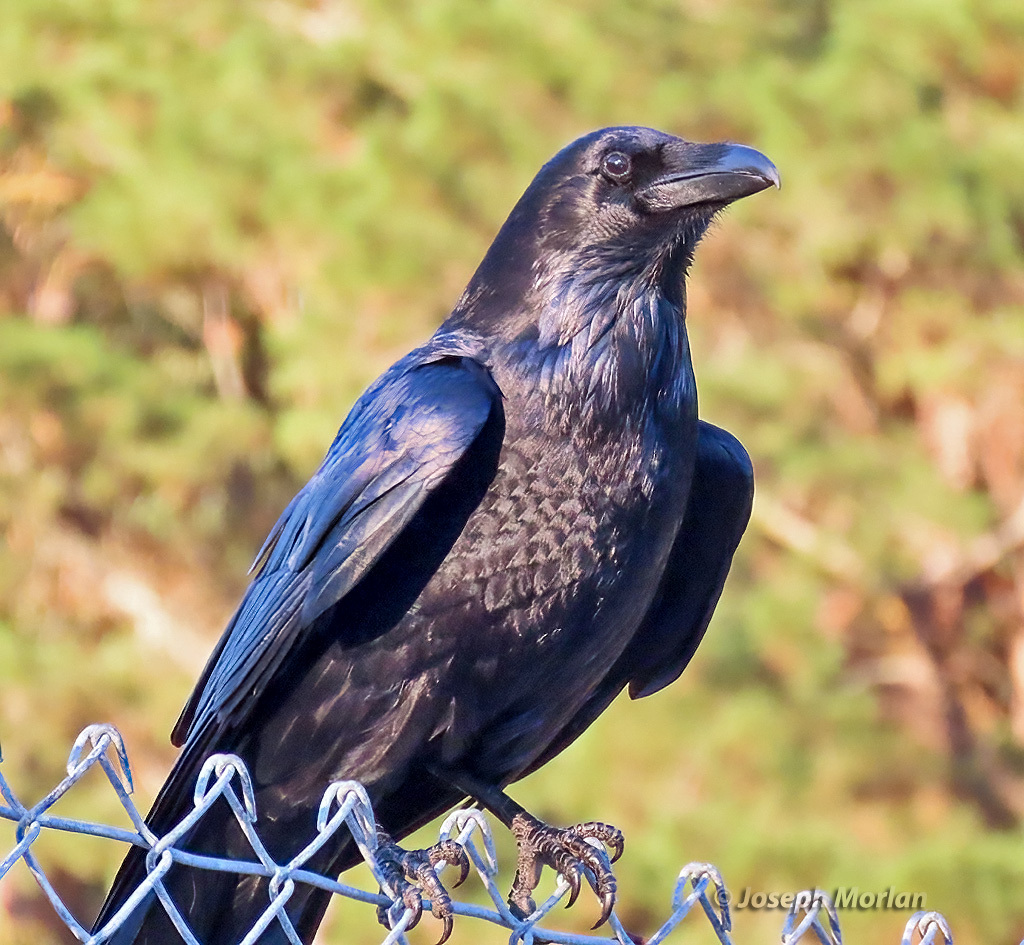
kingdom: Animalia
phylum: Chordata
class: Aves
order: Passeriformes
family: Corvidae
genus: Corvus
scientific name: Corvus corax
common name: Common raven
